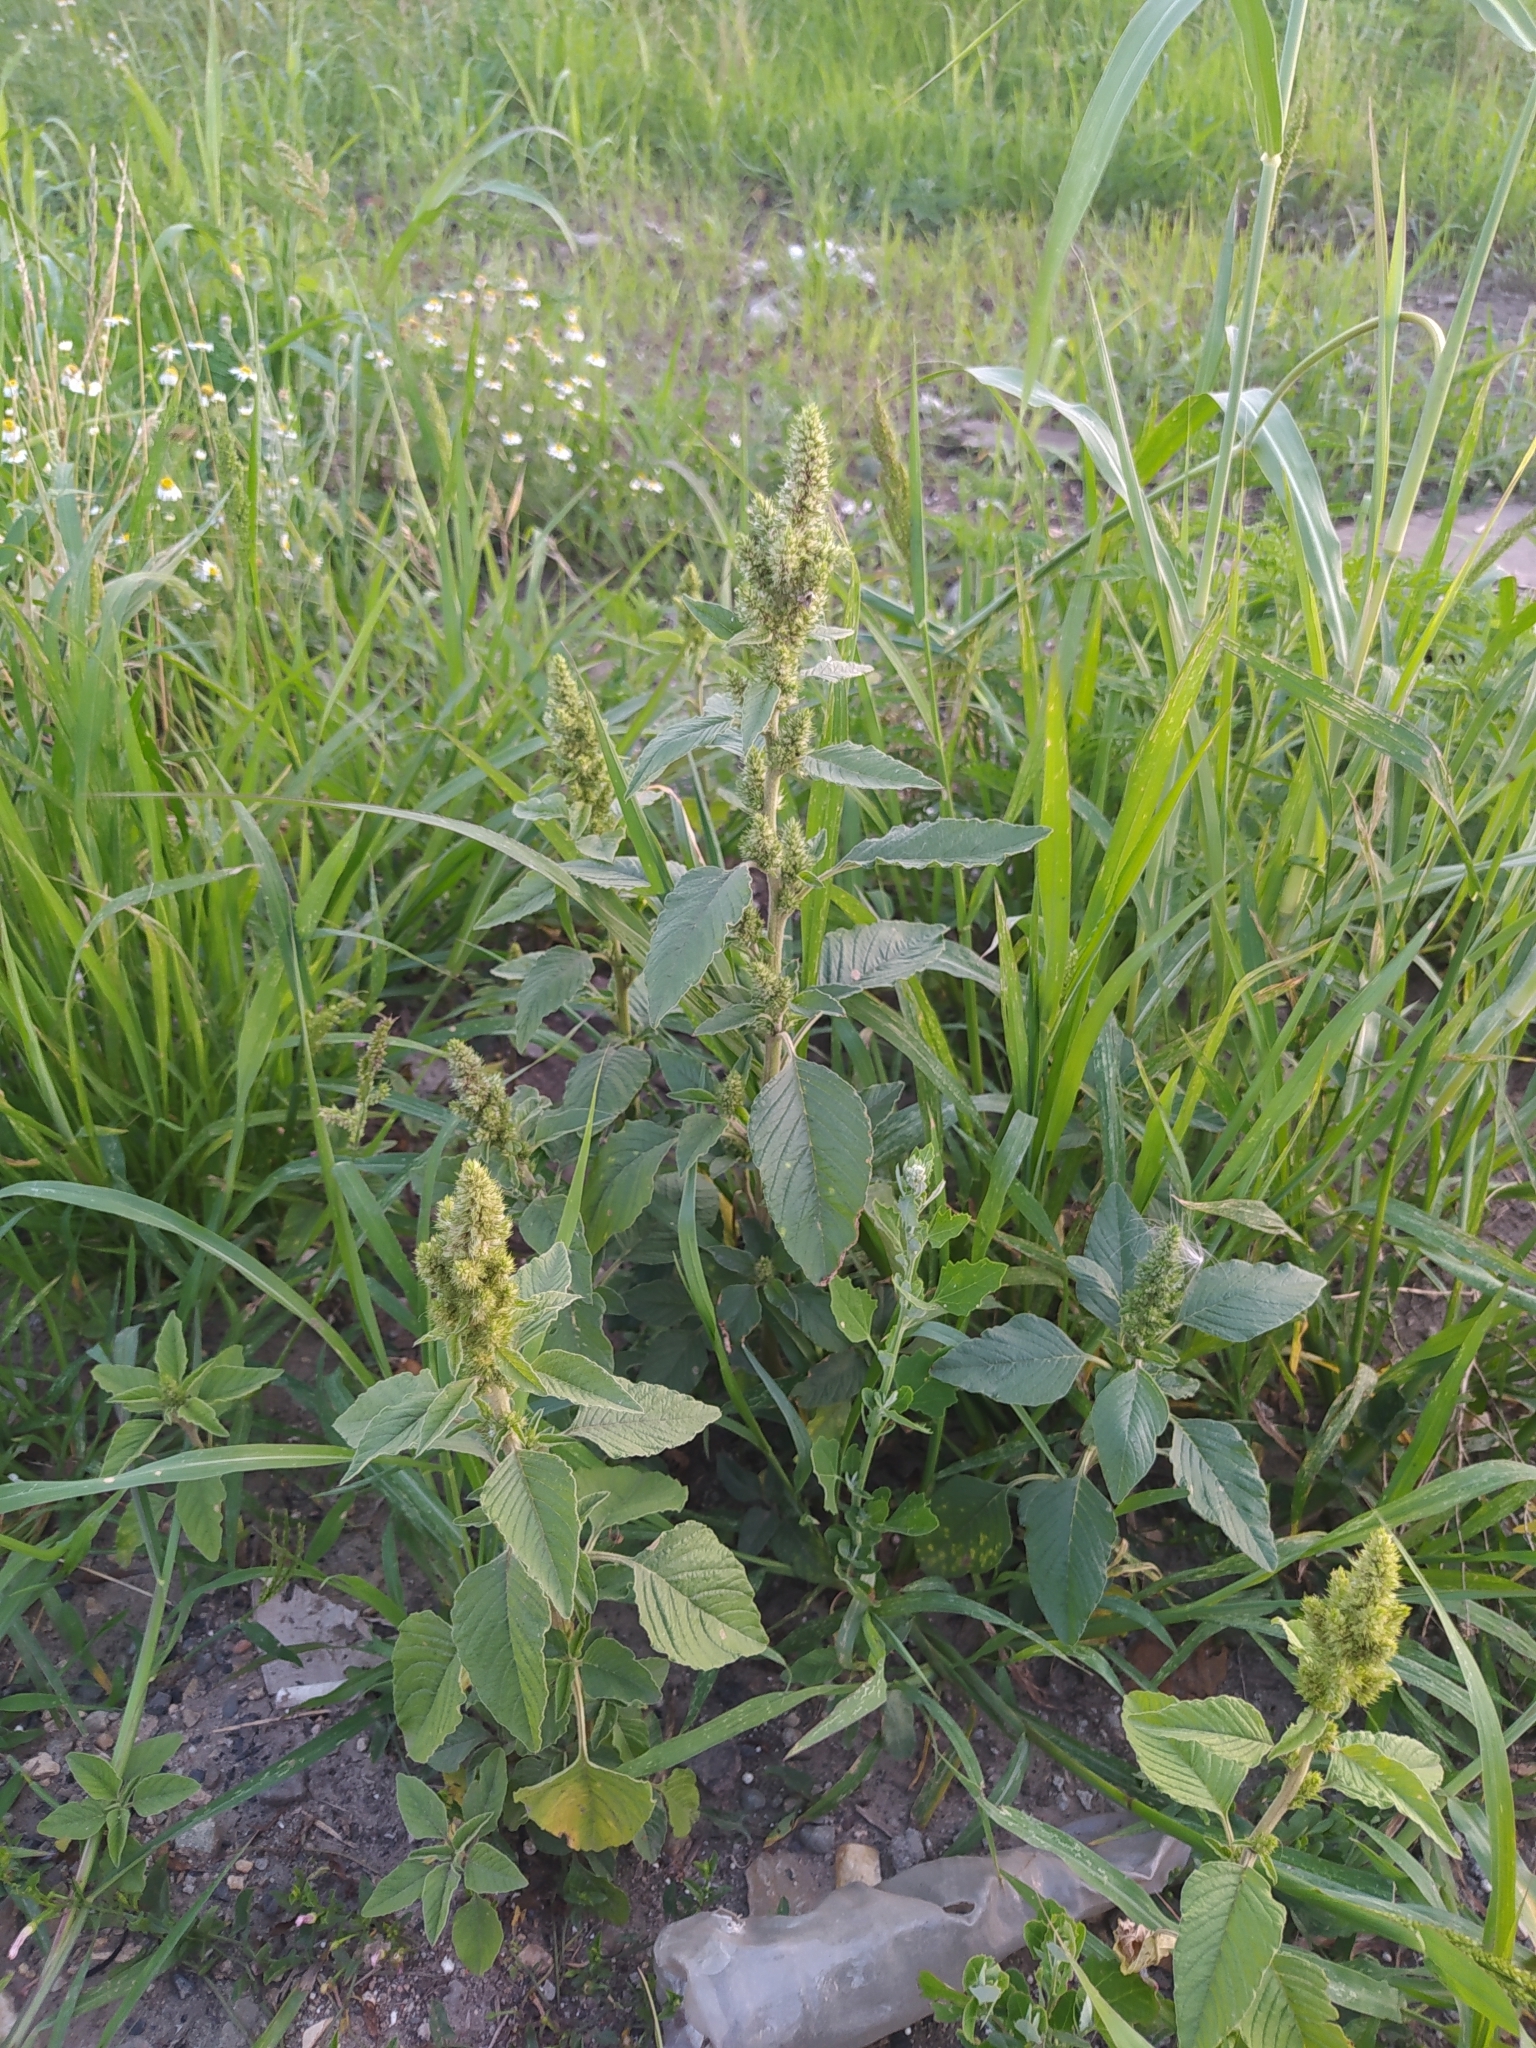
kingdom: Plantae
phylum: Tracheophyta
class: Magnoliopsida
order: Caryophyllales
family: Amaranthaceae
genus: Amaranthus
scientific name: Amaranthus retroflexus
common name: Redroot amaranth
